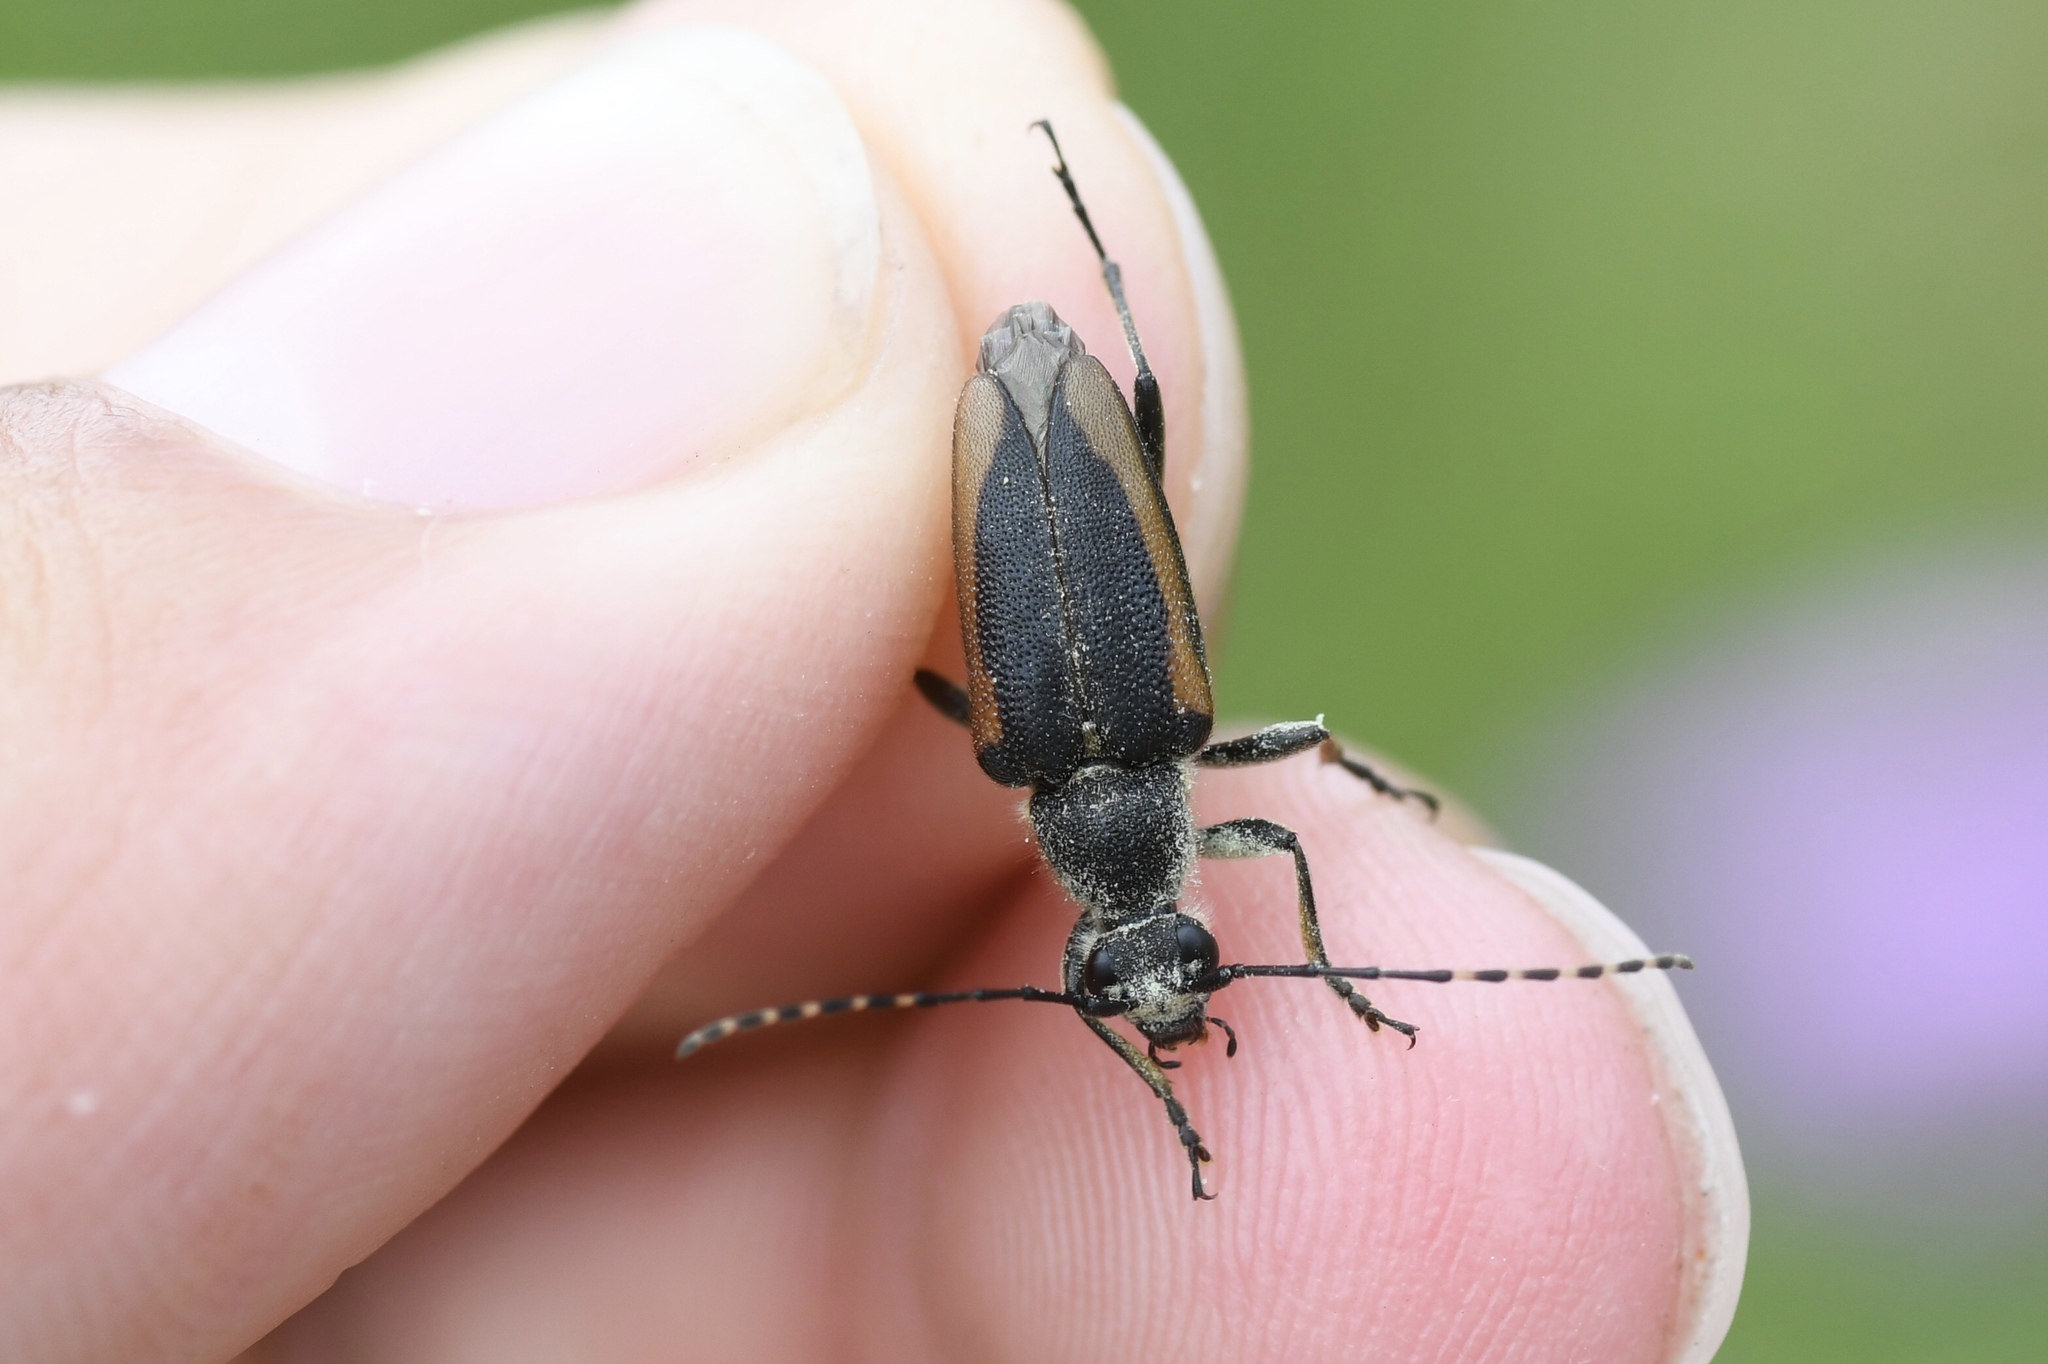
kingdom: Animalia
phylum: Arthropoda
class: Insecta
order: Coleoptera
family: Cerambycidae
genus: Brachyleptura
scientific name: Brachyleptura vagans
